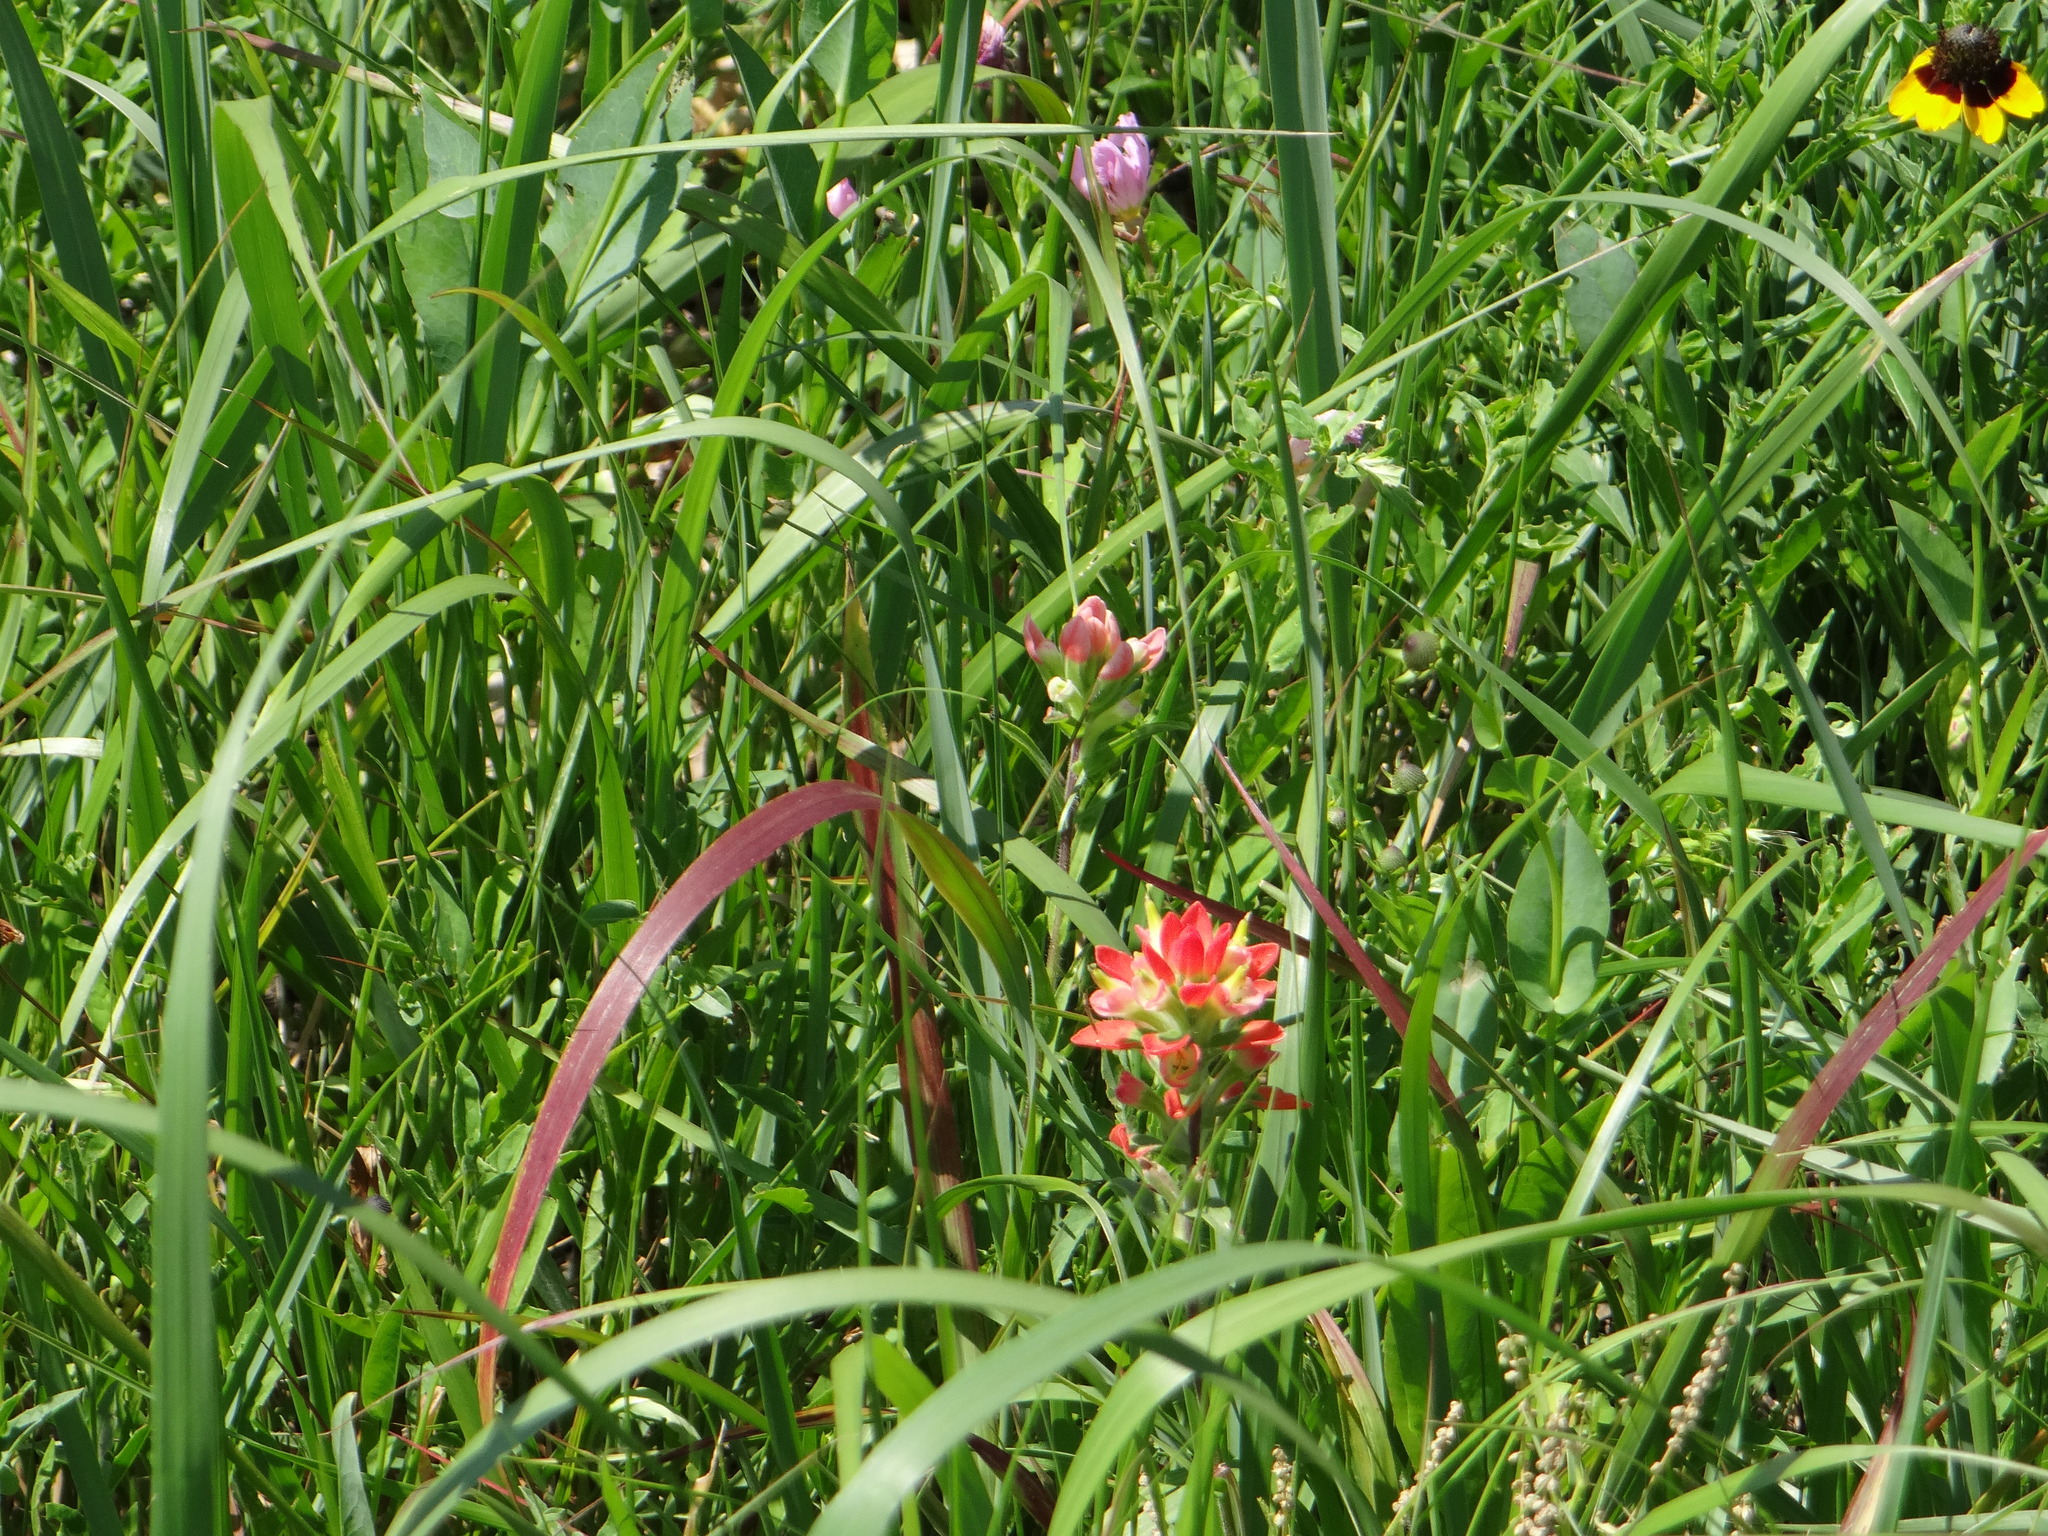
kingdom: Plantae
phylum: Tracheophyta
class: Magnoliopsida
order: Lamiales
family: Orobanchaceae
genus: Castilleja
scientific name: Castilleja indivisa
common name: Texas paintbrush
